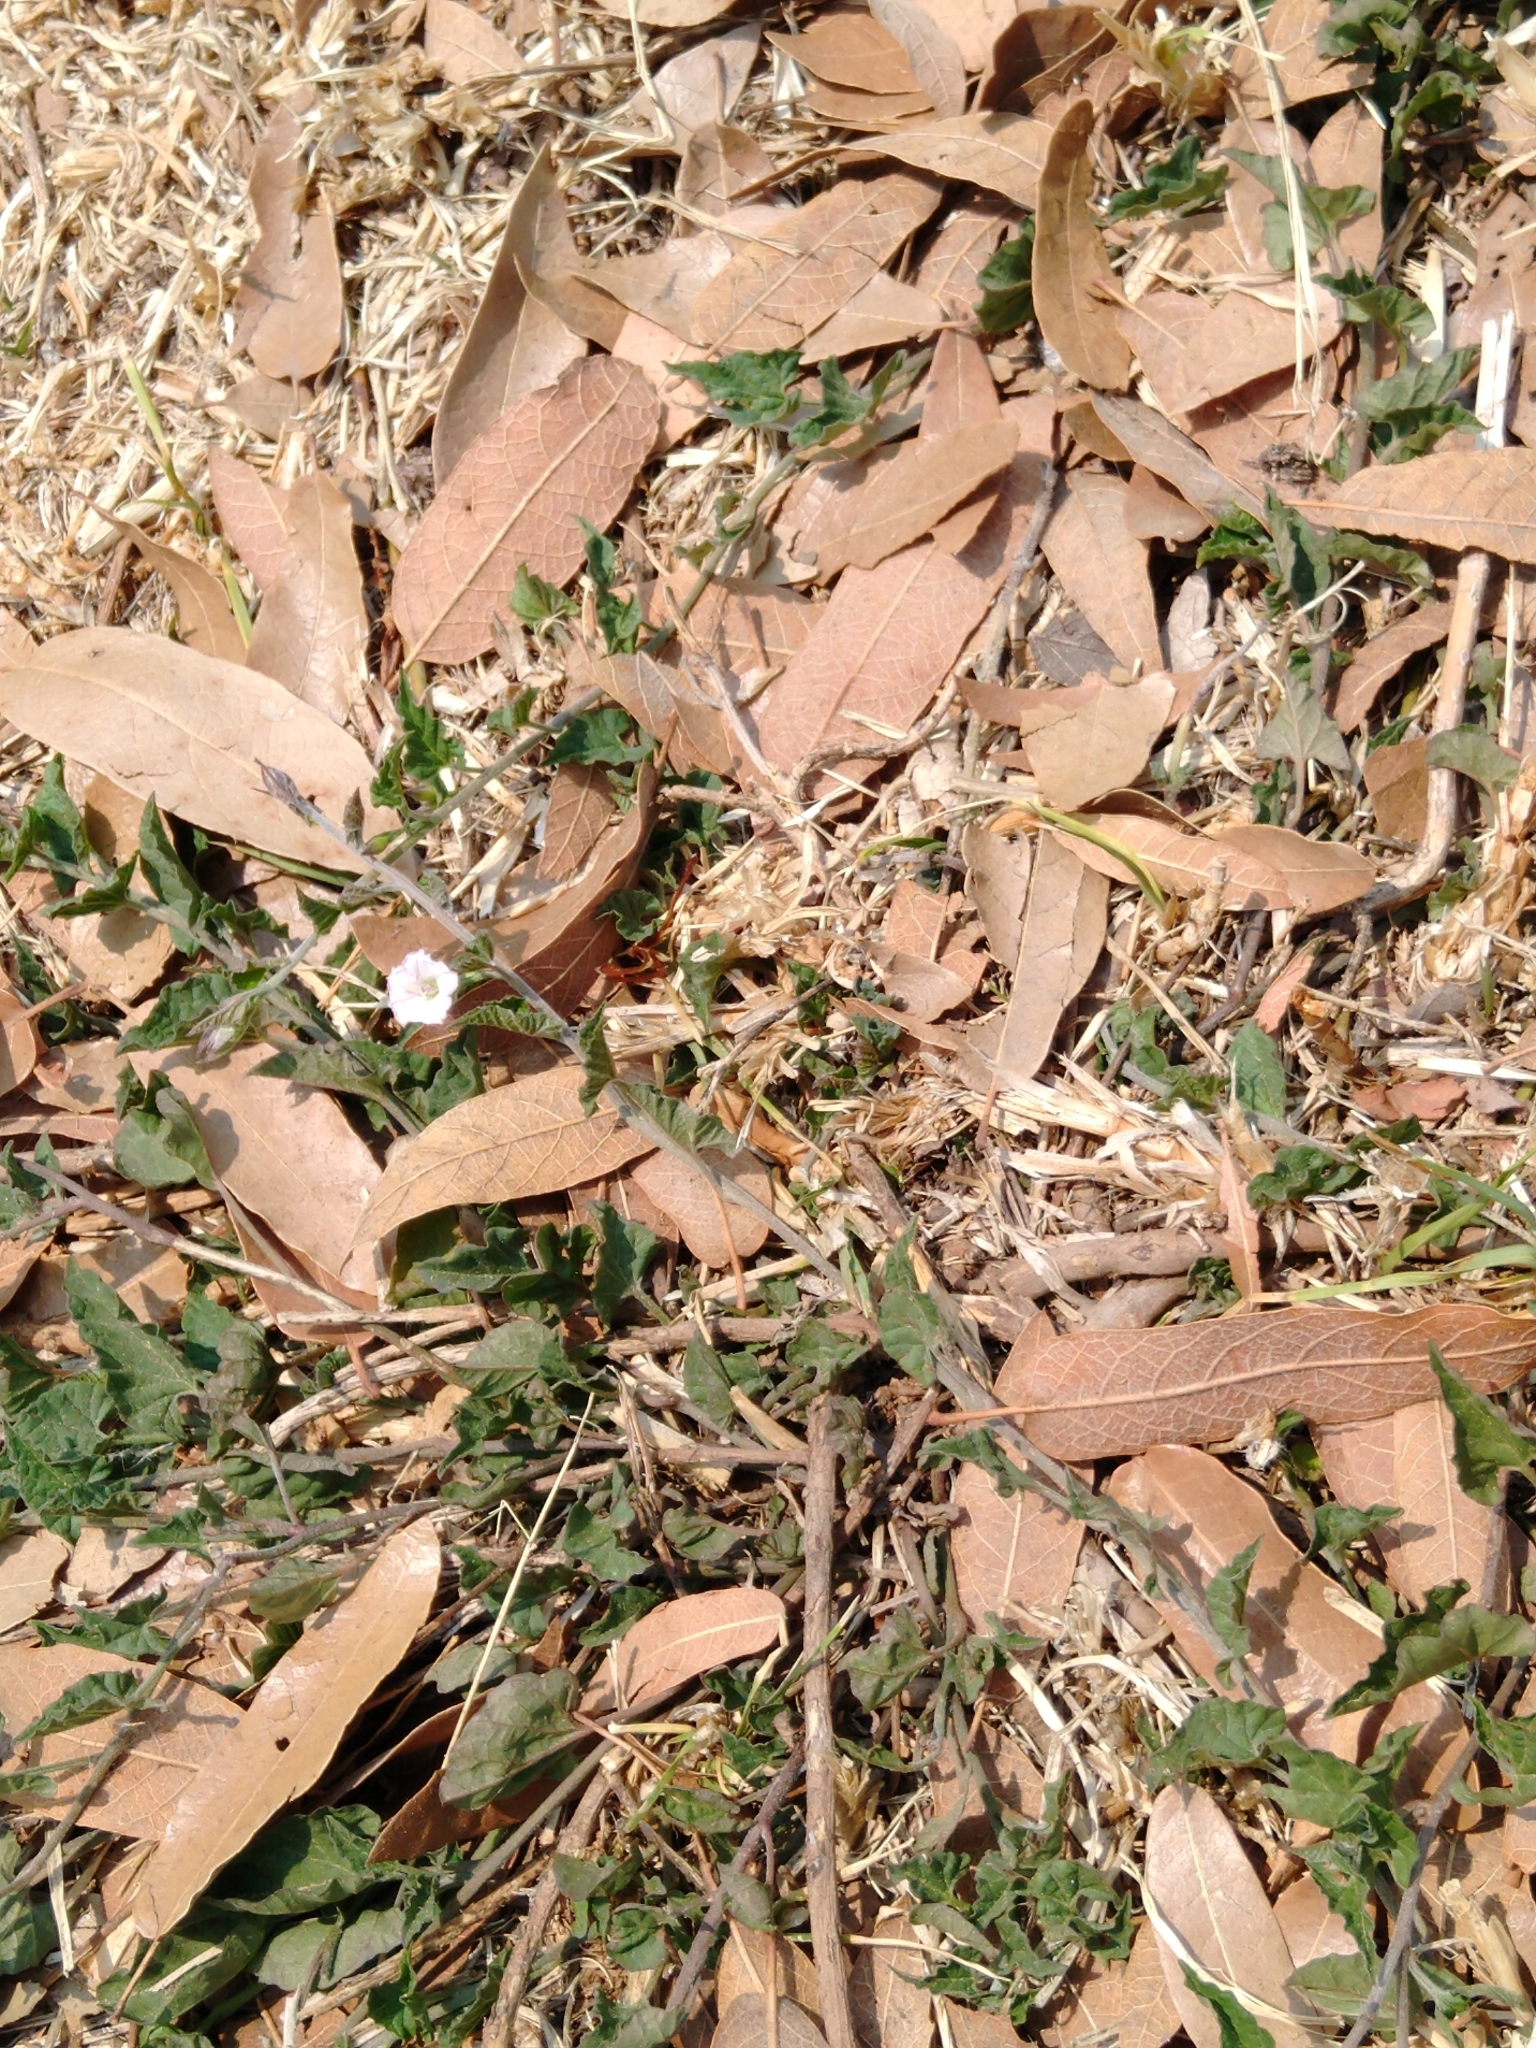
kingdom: Plantae
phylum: Tracheophyta
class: Magnoliopsida
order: Solanales
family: Convolvulaceae
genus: Convolvulus
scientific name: Convolvulus crenatifolius
